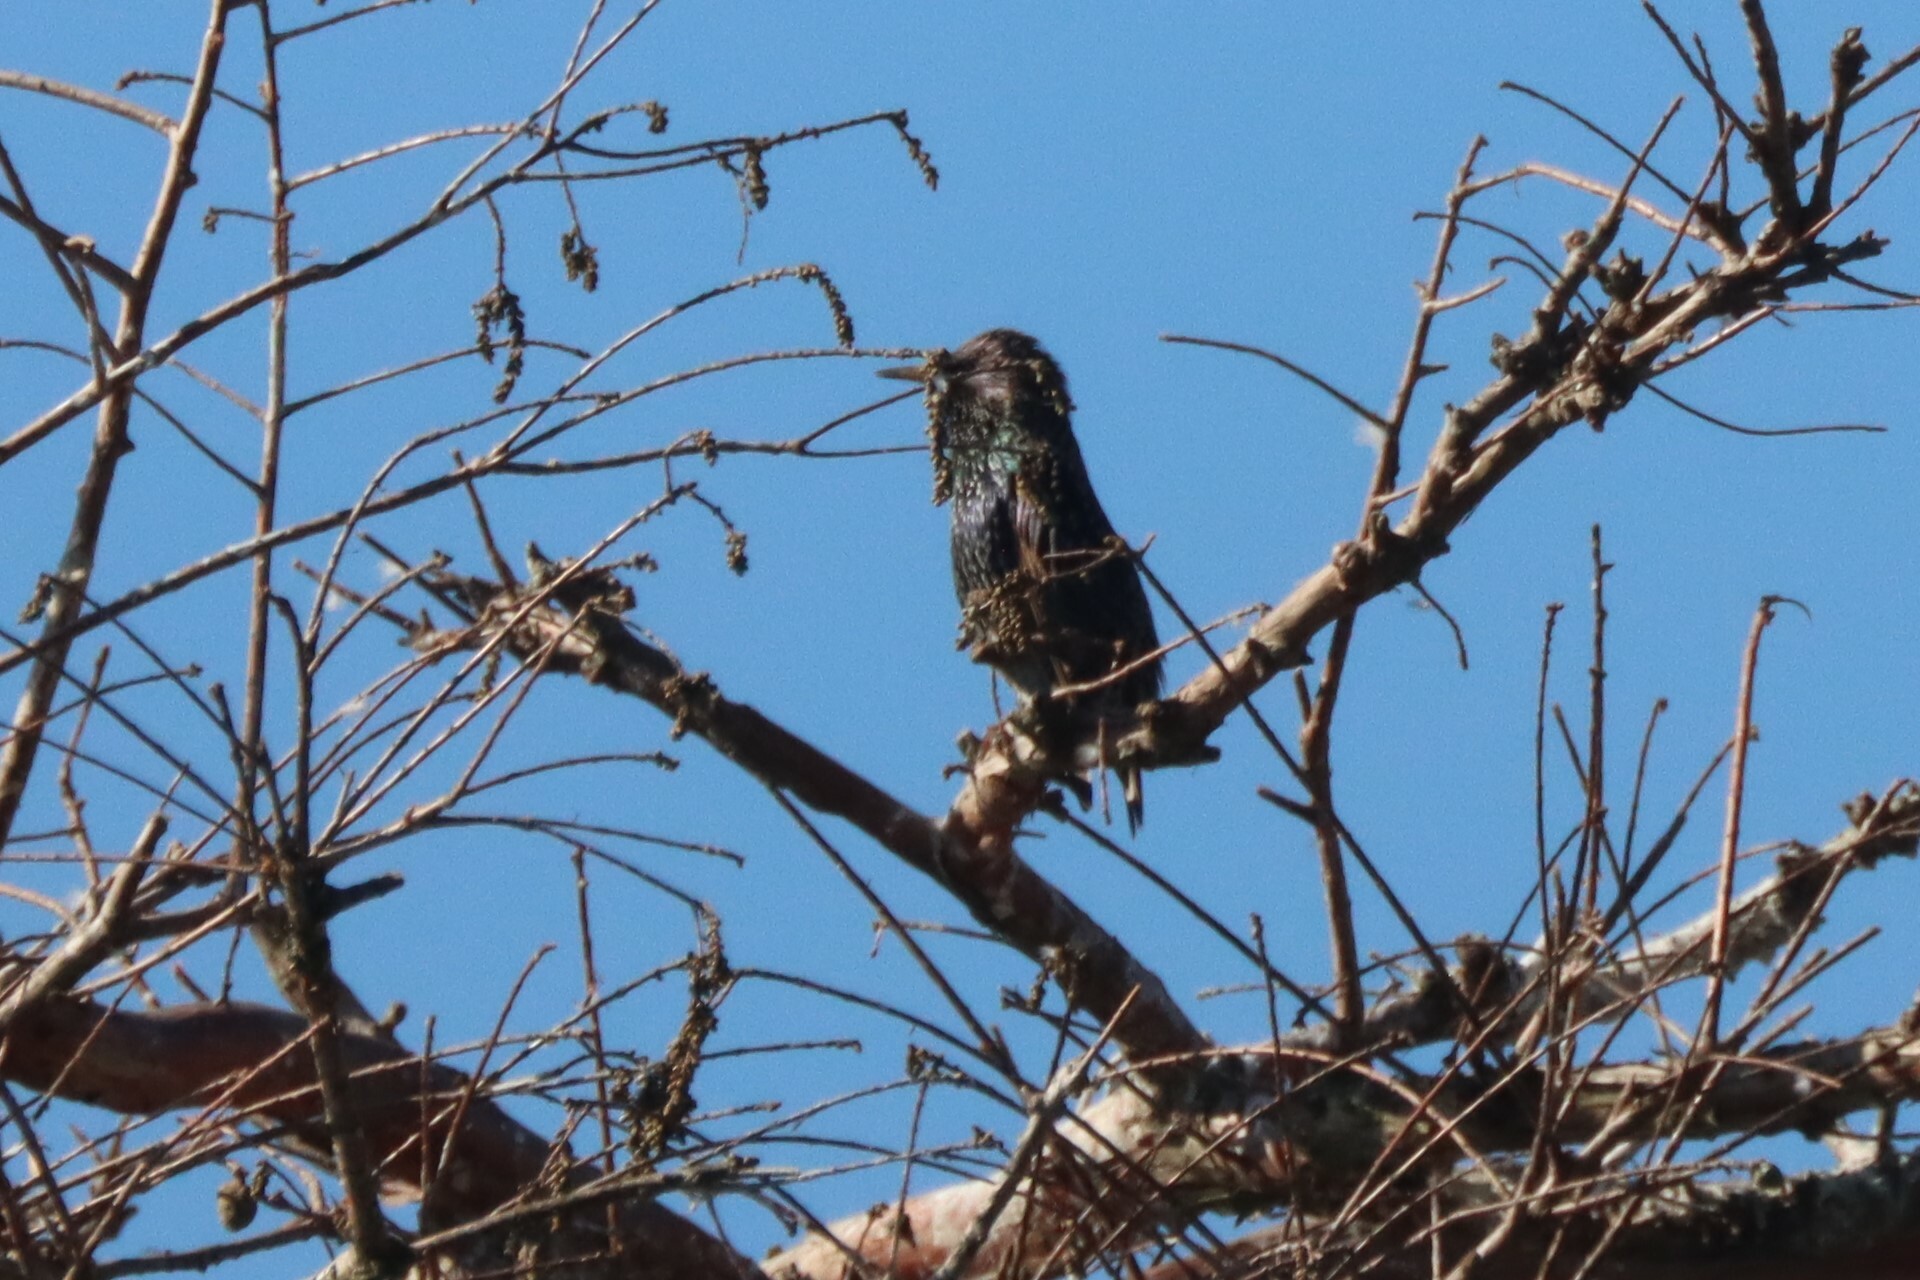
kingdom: Animalia
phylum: Chordata
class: Aves
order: Passeriformes
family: Sturnidae
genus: Sturnus
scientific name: Sturnus vulgaris
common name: Common starling
